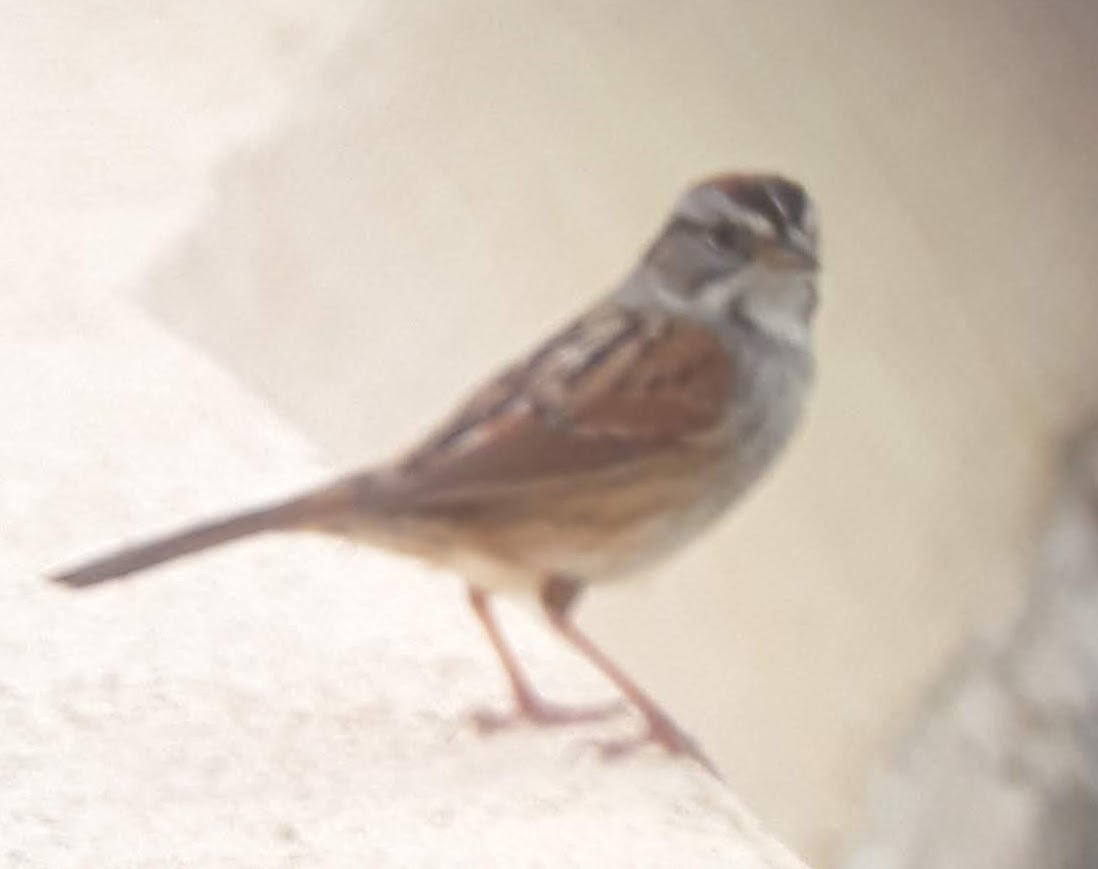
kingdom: Animalia
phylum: Chordata
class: Aves
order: Passeriformes
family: Passerellidae
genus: Melospiza
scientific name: Melospiza georgiana
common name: Swamp sparrow
